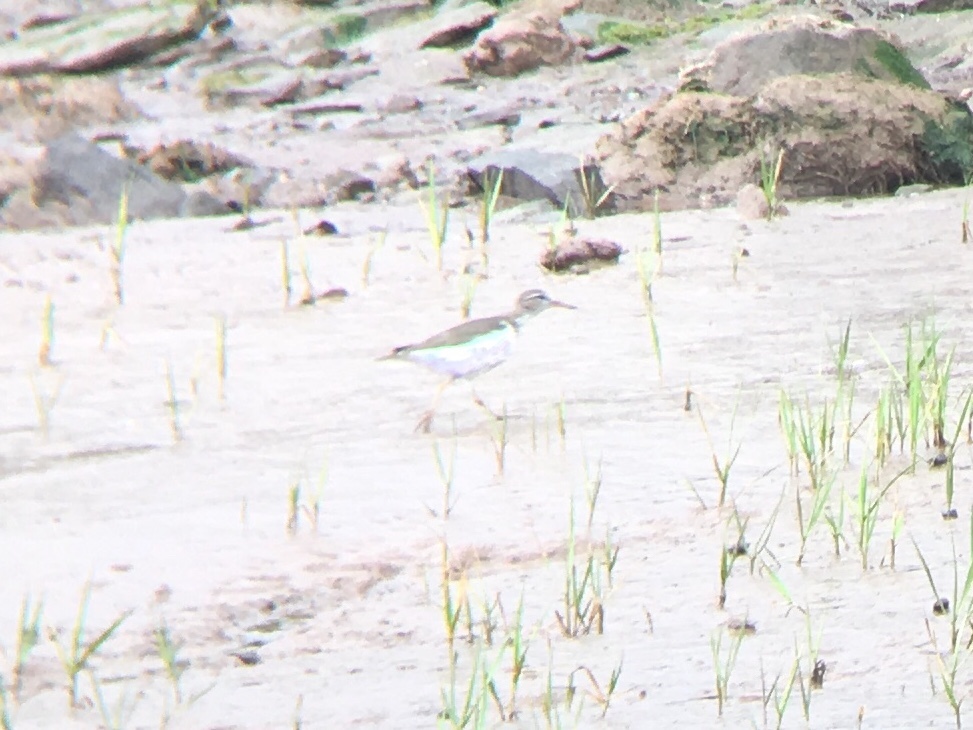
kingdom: Animalia
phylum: Chordata
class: Aves
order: Charadriiformes
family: Scolopacidae
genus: Actitis
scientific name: Actitis macularius
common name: Spotted sandpiper
